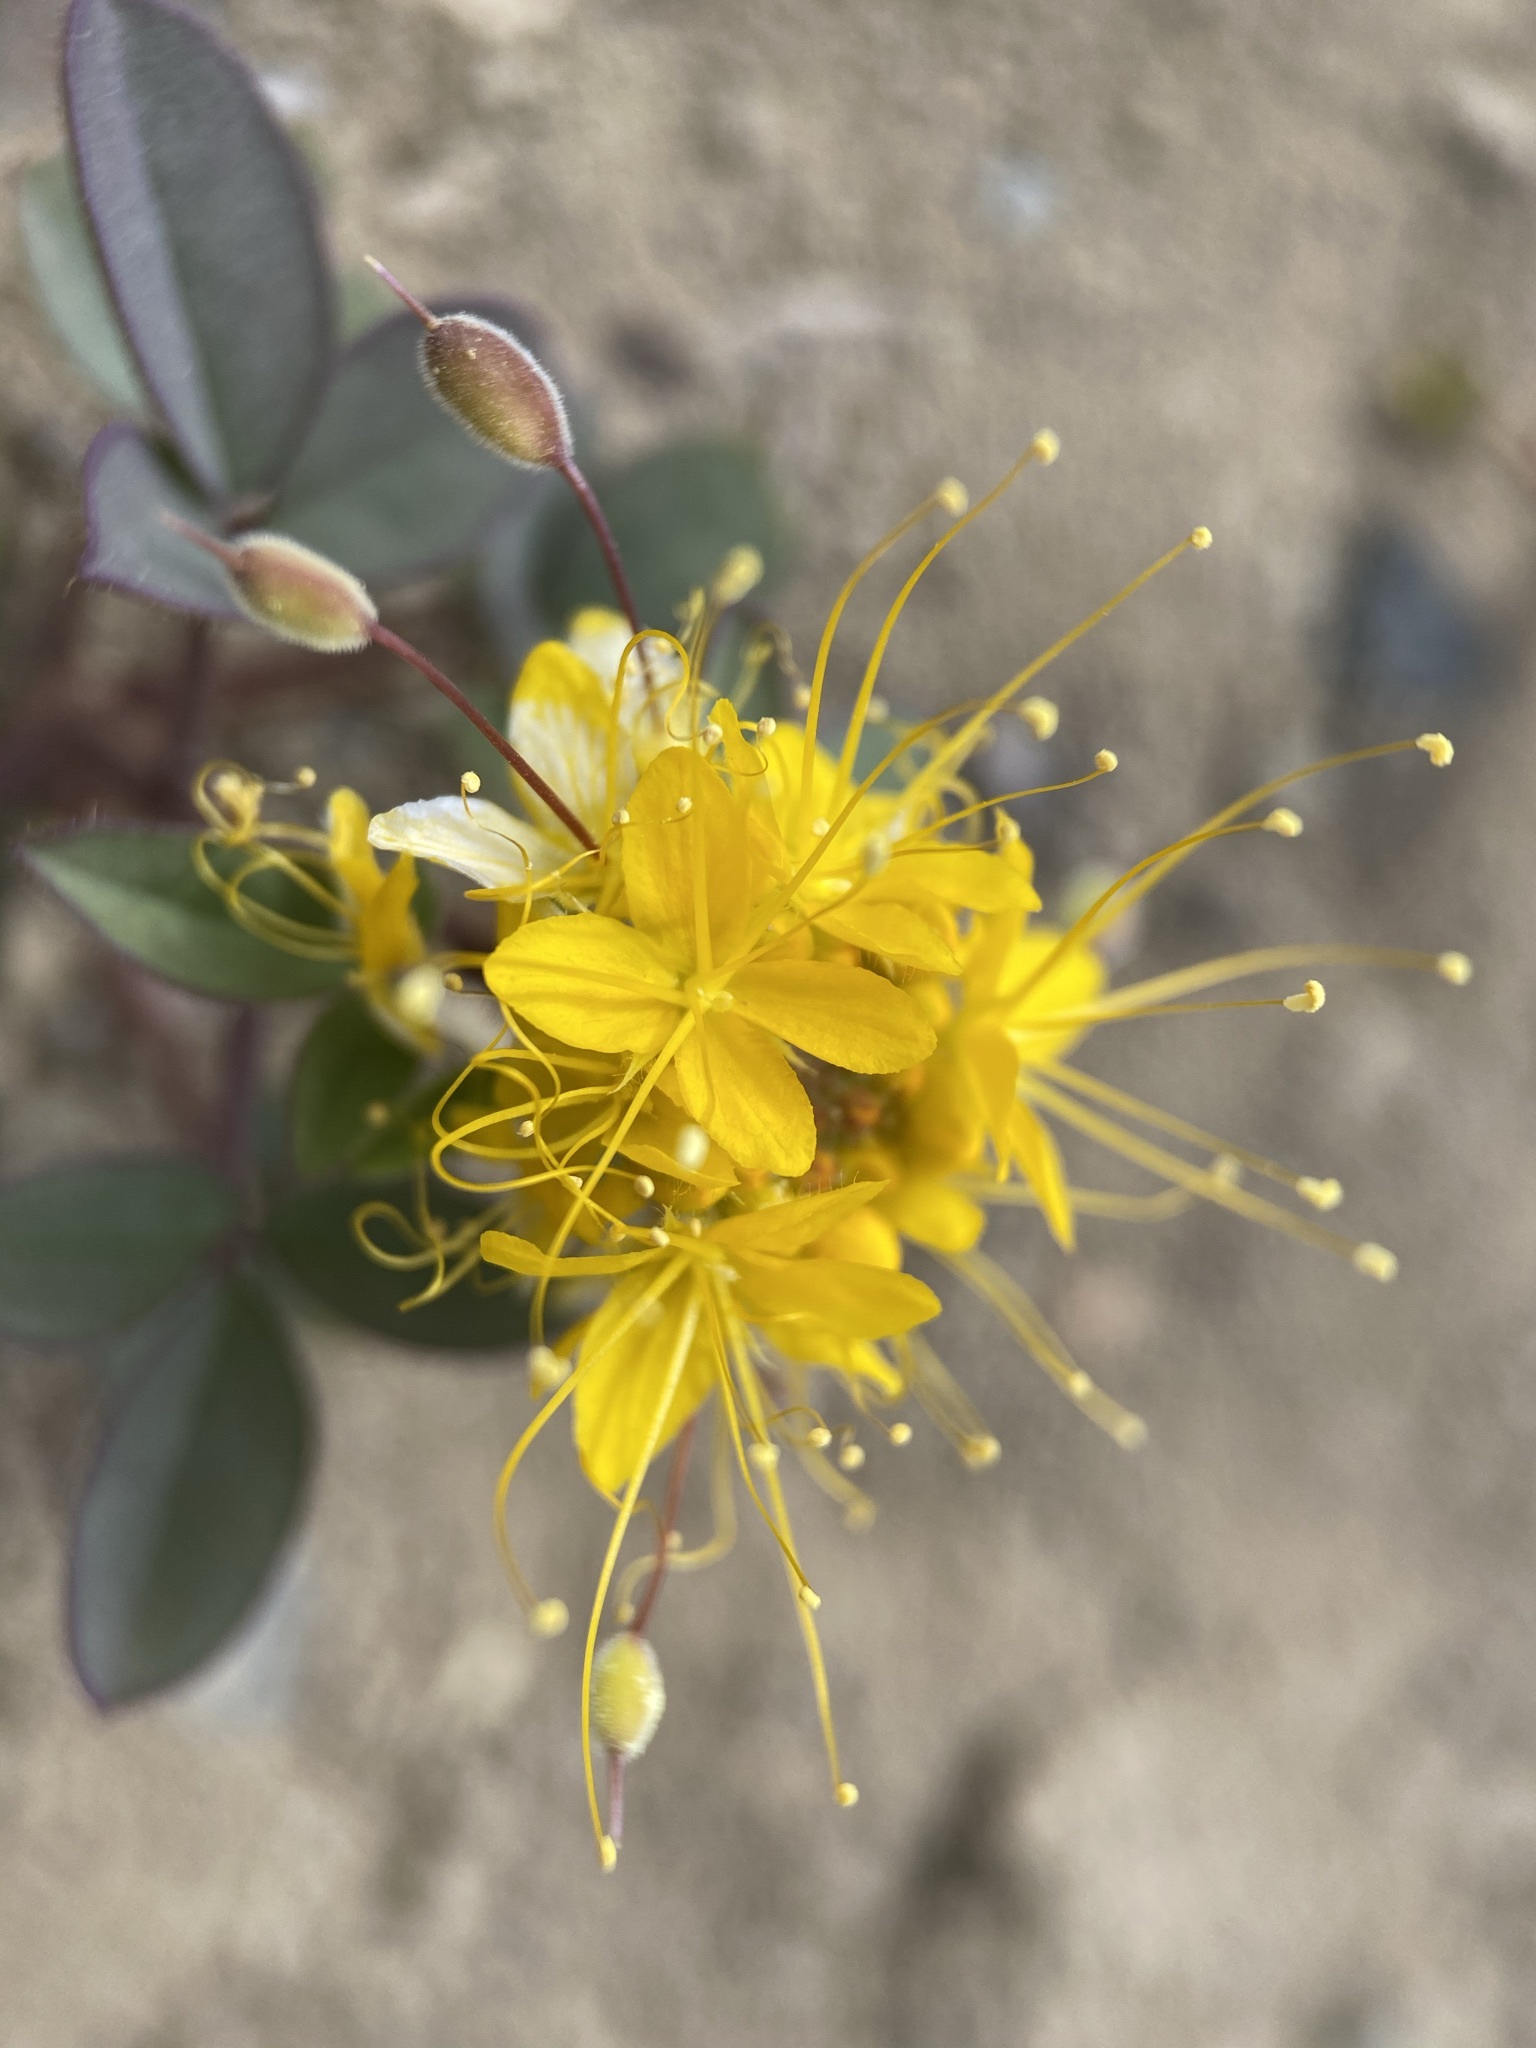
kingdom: Plantae
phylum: Tracheophyta
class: Magnoliopsida
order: Brassicales
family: Cleomaceae
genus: Cleomella
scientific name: Cleomella hillmanii
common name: Desert stinkweed
